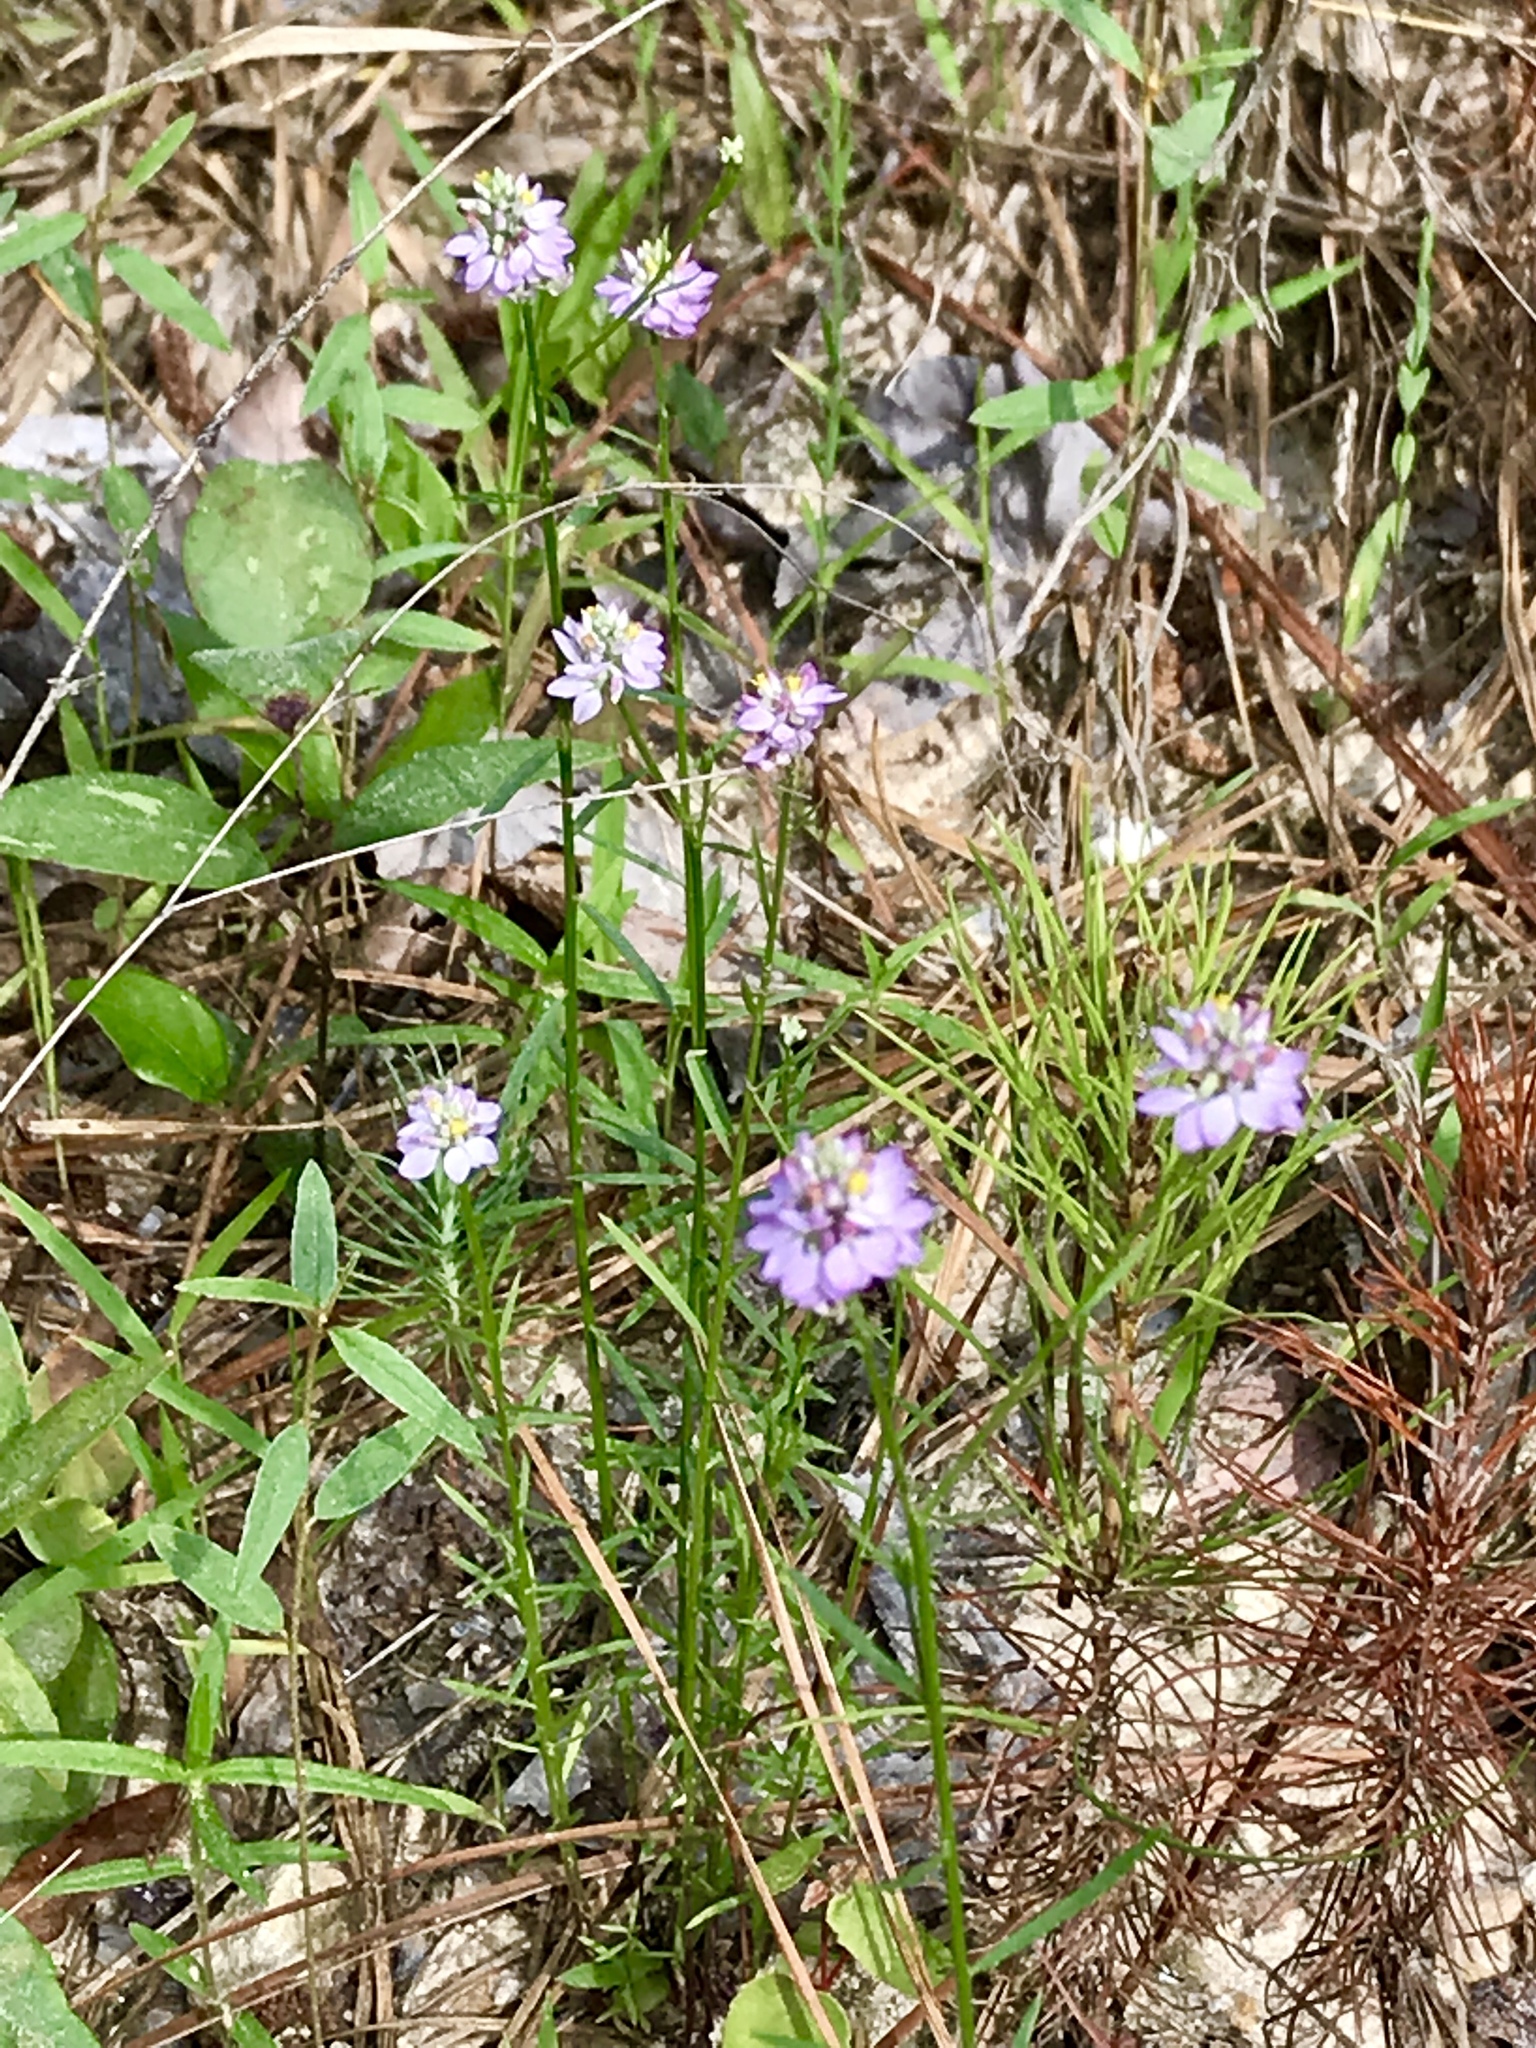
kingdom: Plantae
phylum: Tracheophyta
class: Magnoliopsida
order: Fabales
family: Polygalaceae
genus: Polygala
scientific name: Polygala mariana
